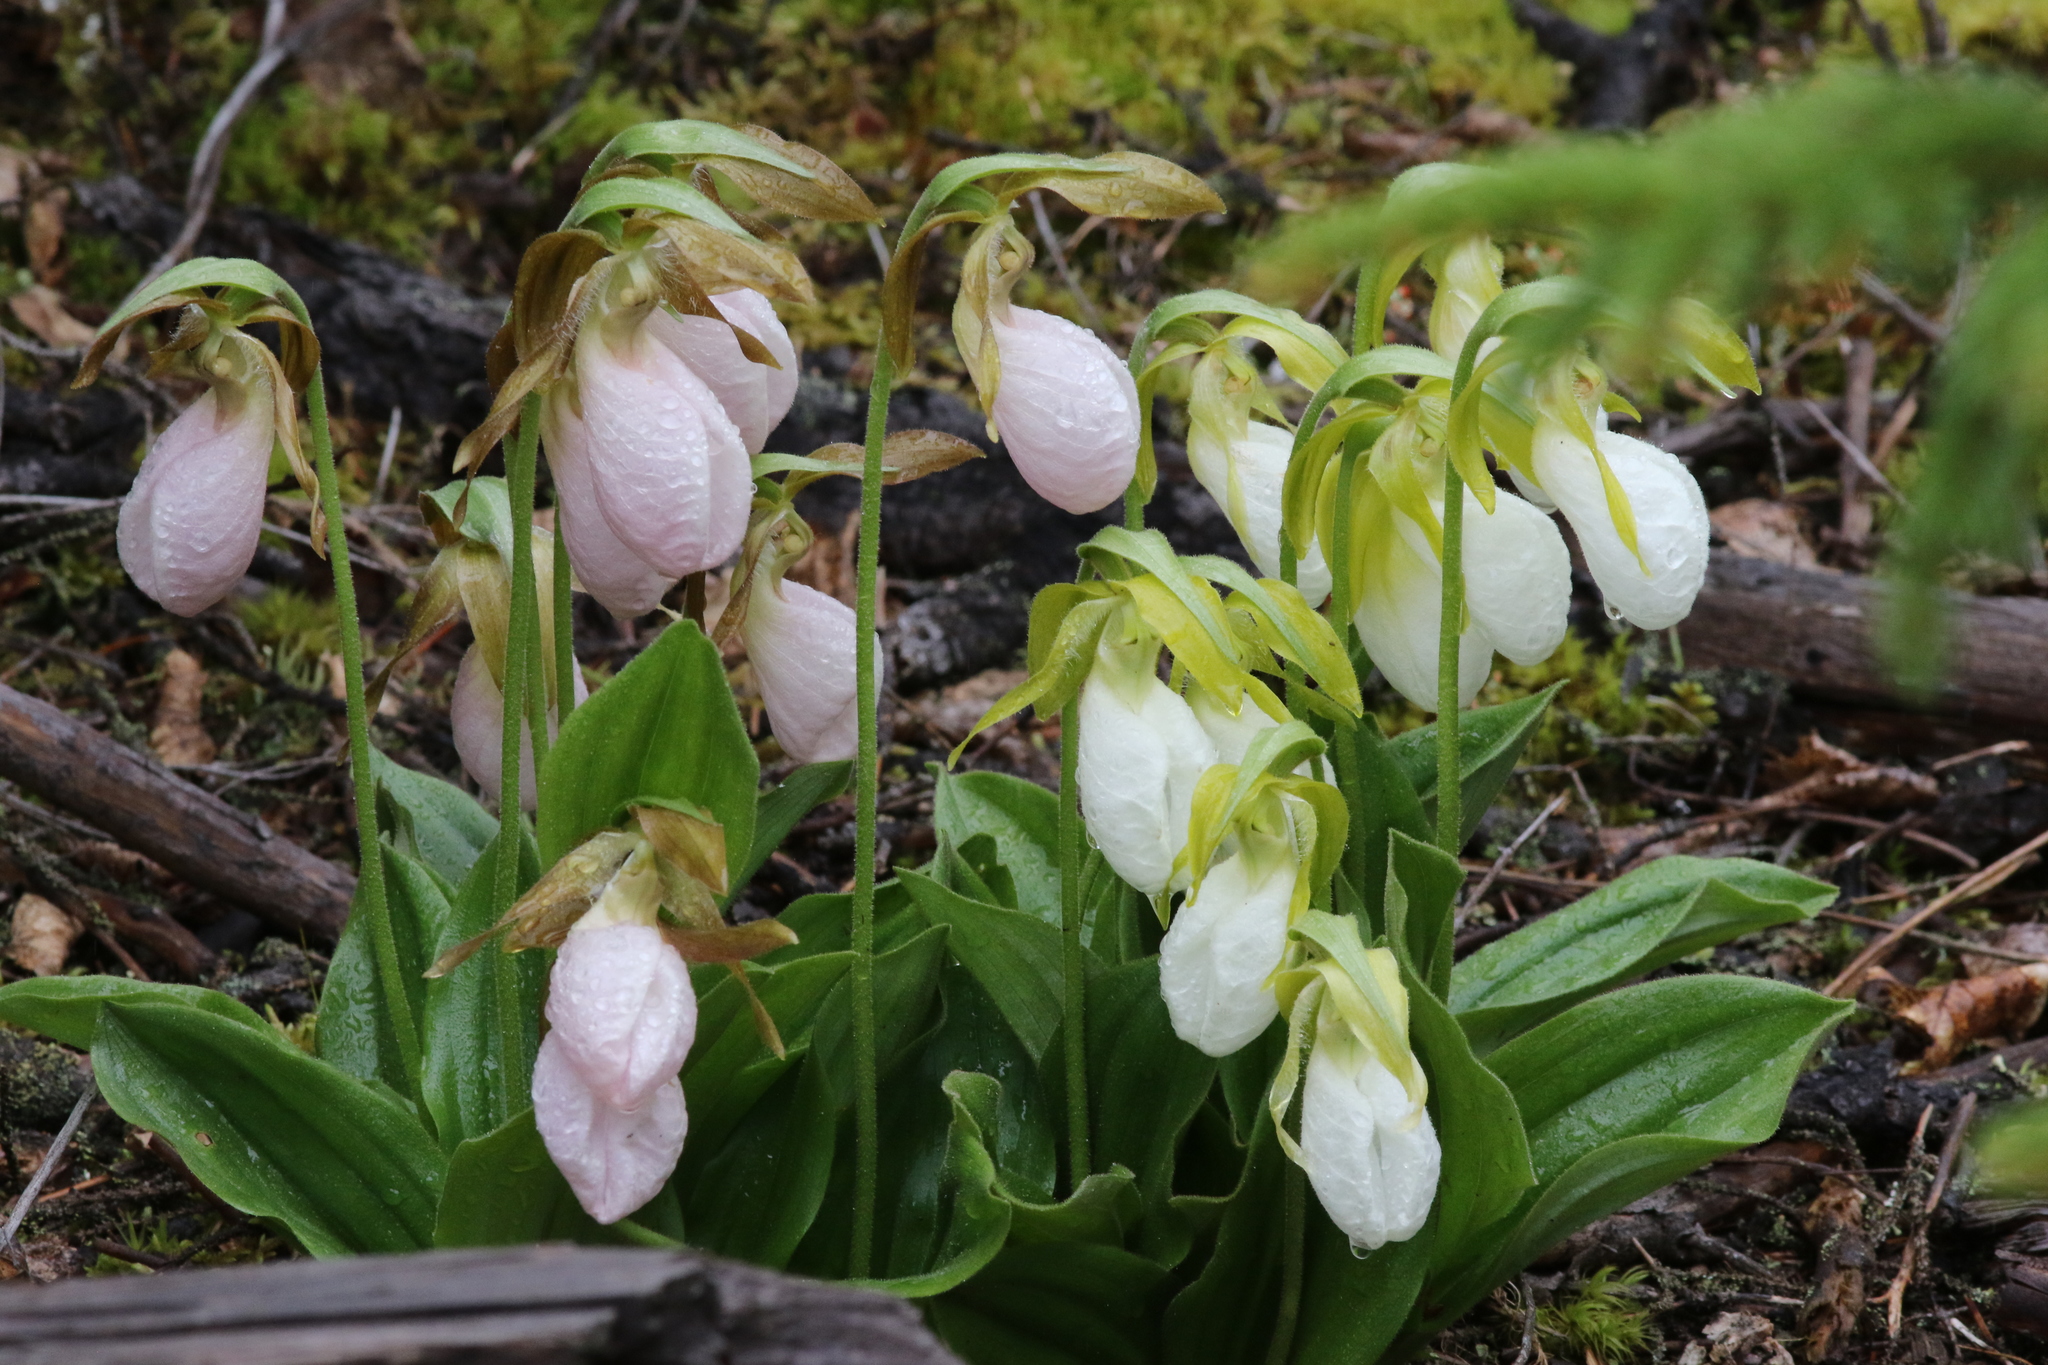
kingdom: Plantae
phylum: Tracheophyta
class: Liliopsida
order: Asparagales
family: Orchidaceae
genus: Cypripedium
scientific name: Cypripedium acaule
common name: Pink lady's-slipper
